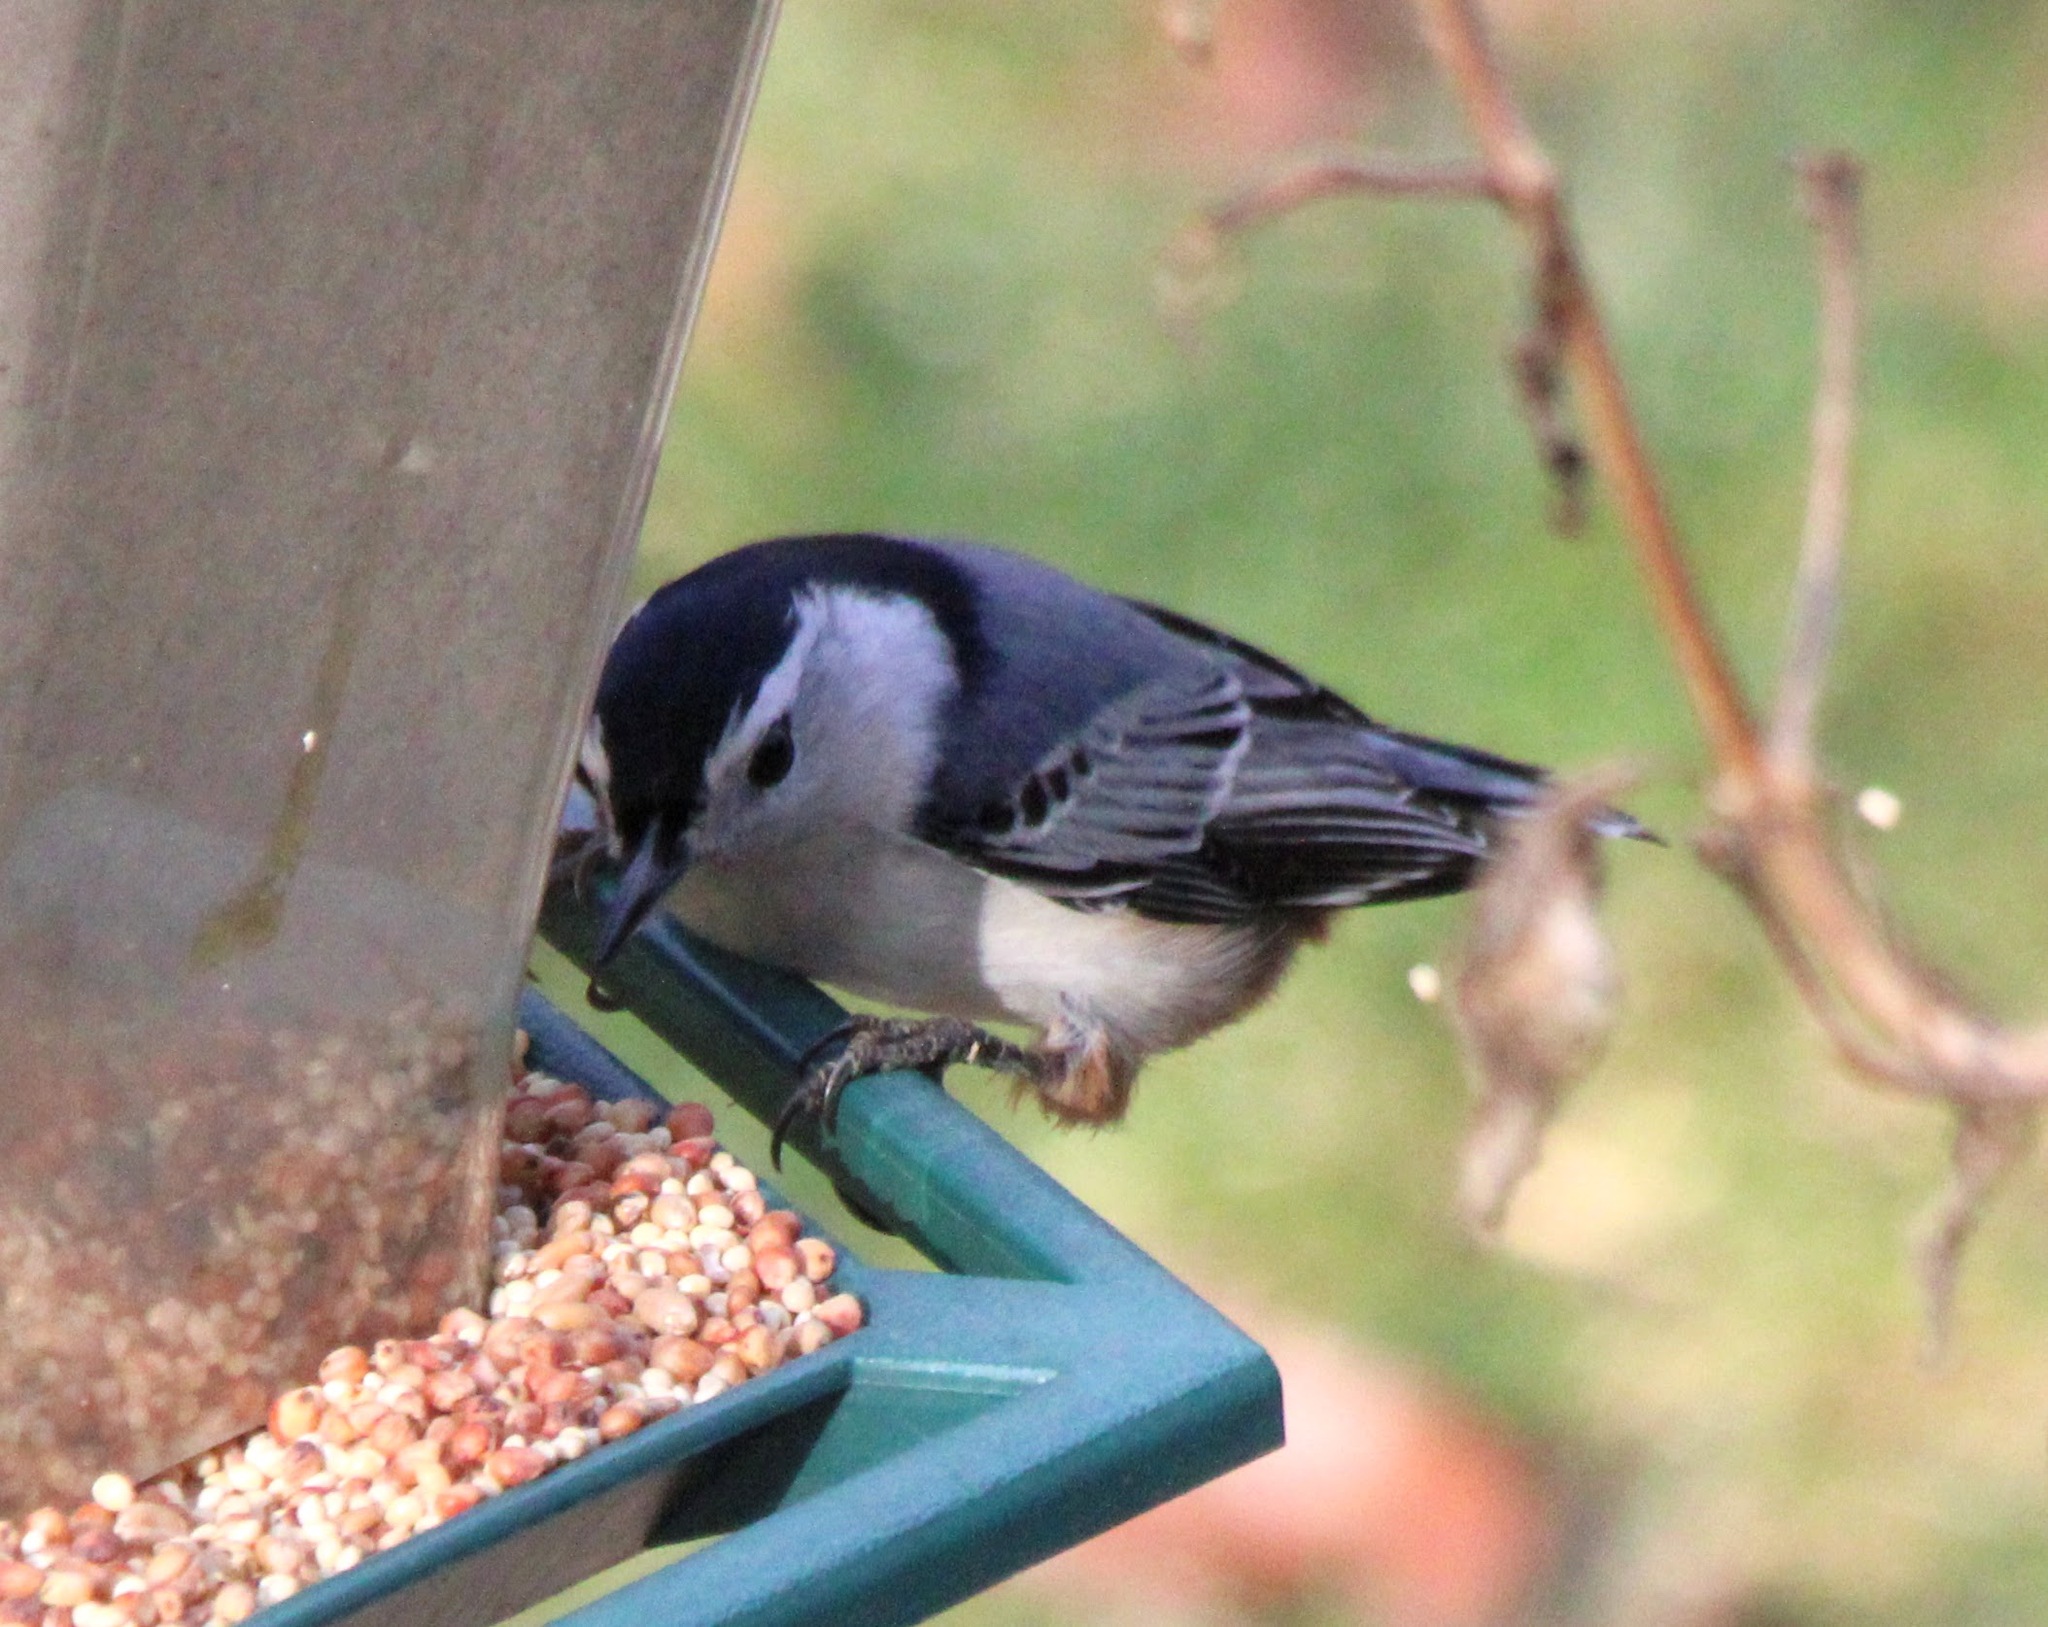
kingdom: Animalia
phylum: Chordata
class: Aves
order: Passeriformes
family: Sittidae
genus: Sitta
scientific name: Sitta carolinensis
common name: White-breasted nuthatch
